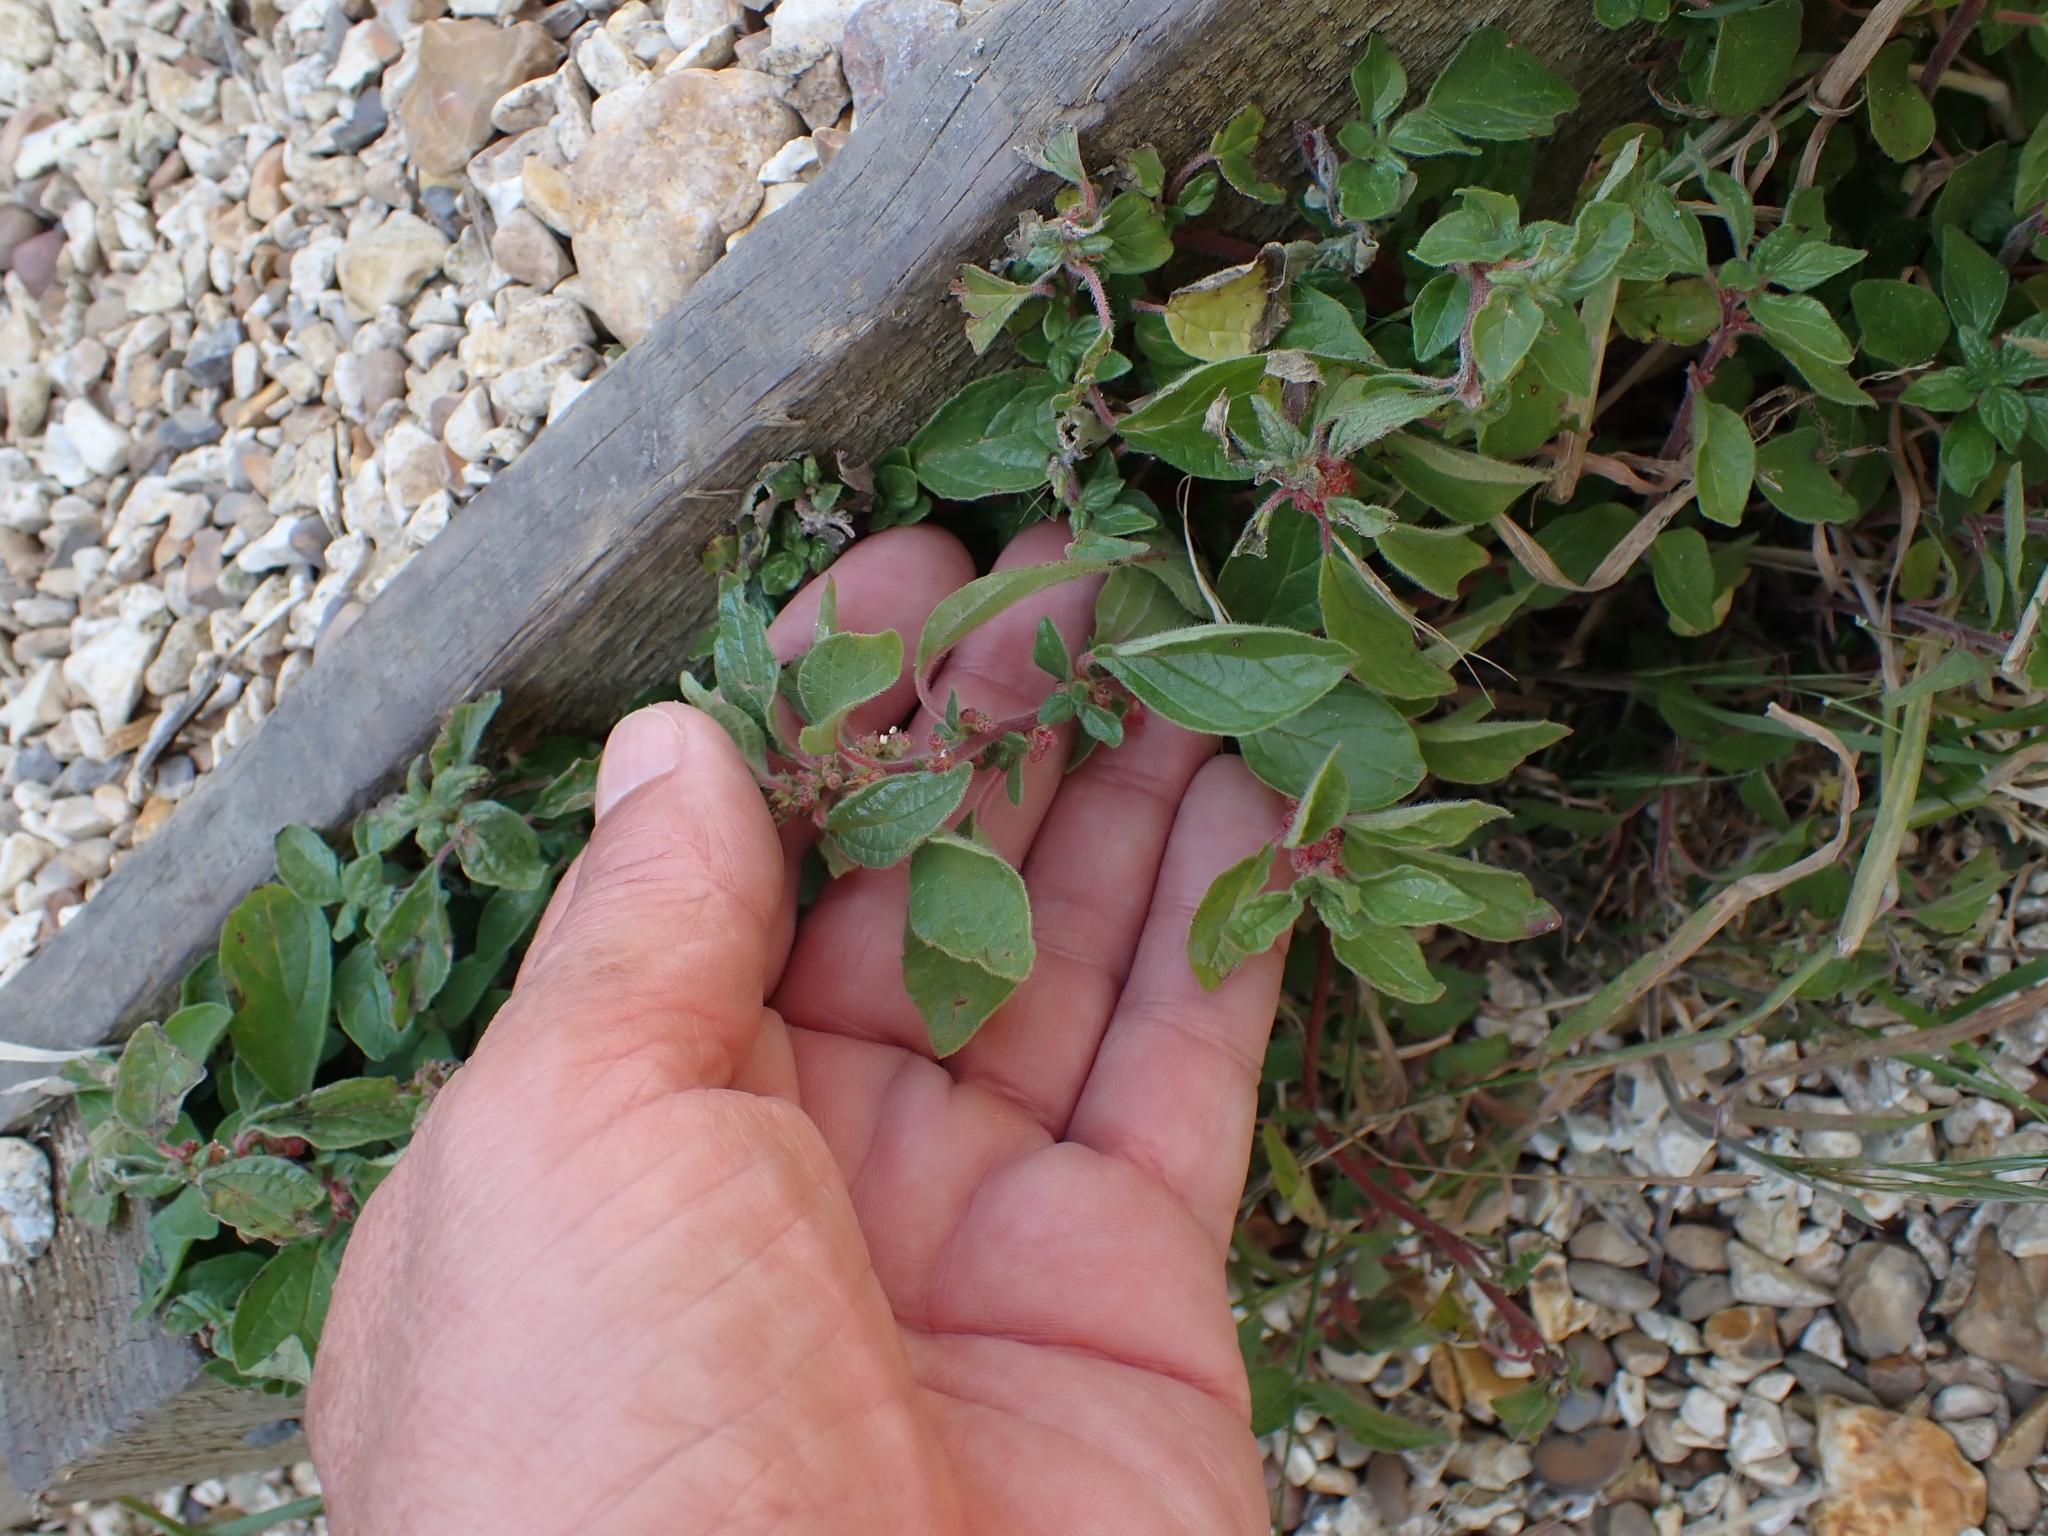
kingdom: Plantae
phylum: Tracheophyta
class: Magnoliopsida
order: Rosales
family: Urticaceae
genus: Parietaria
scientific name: Parietaria judaica
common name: Pellitory-of-the-wall
